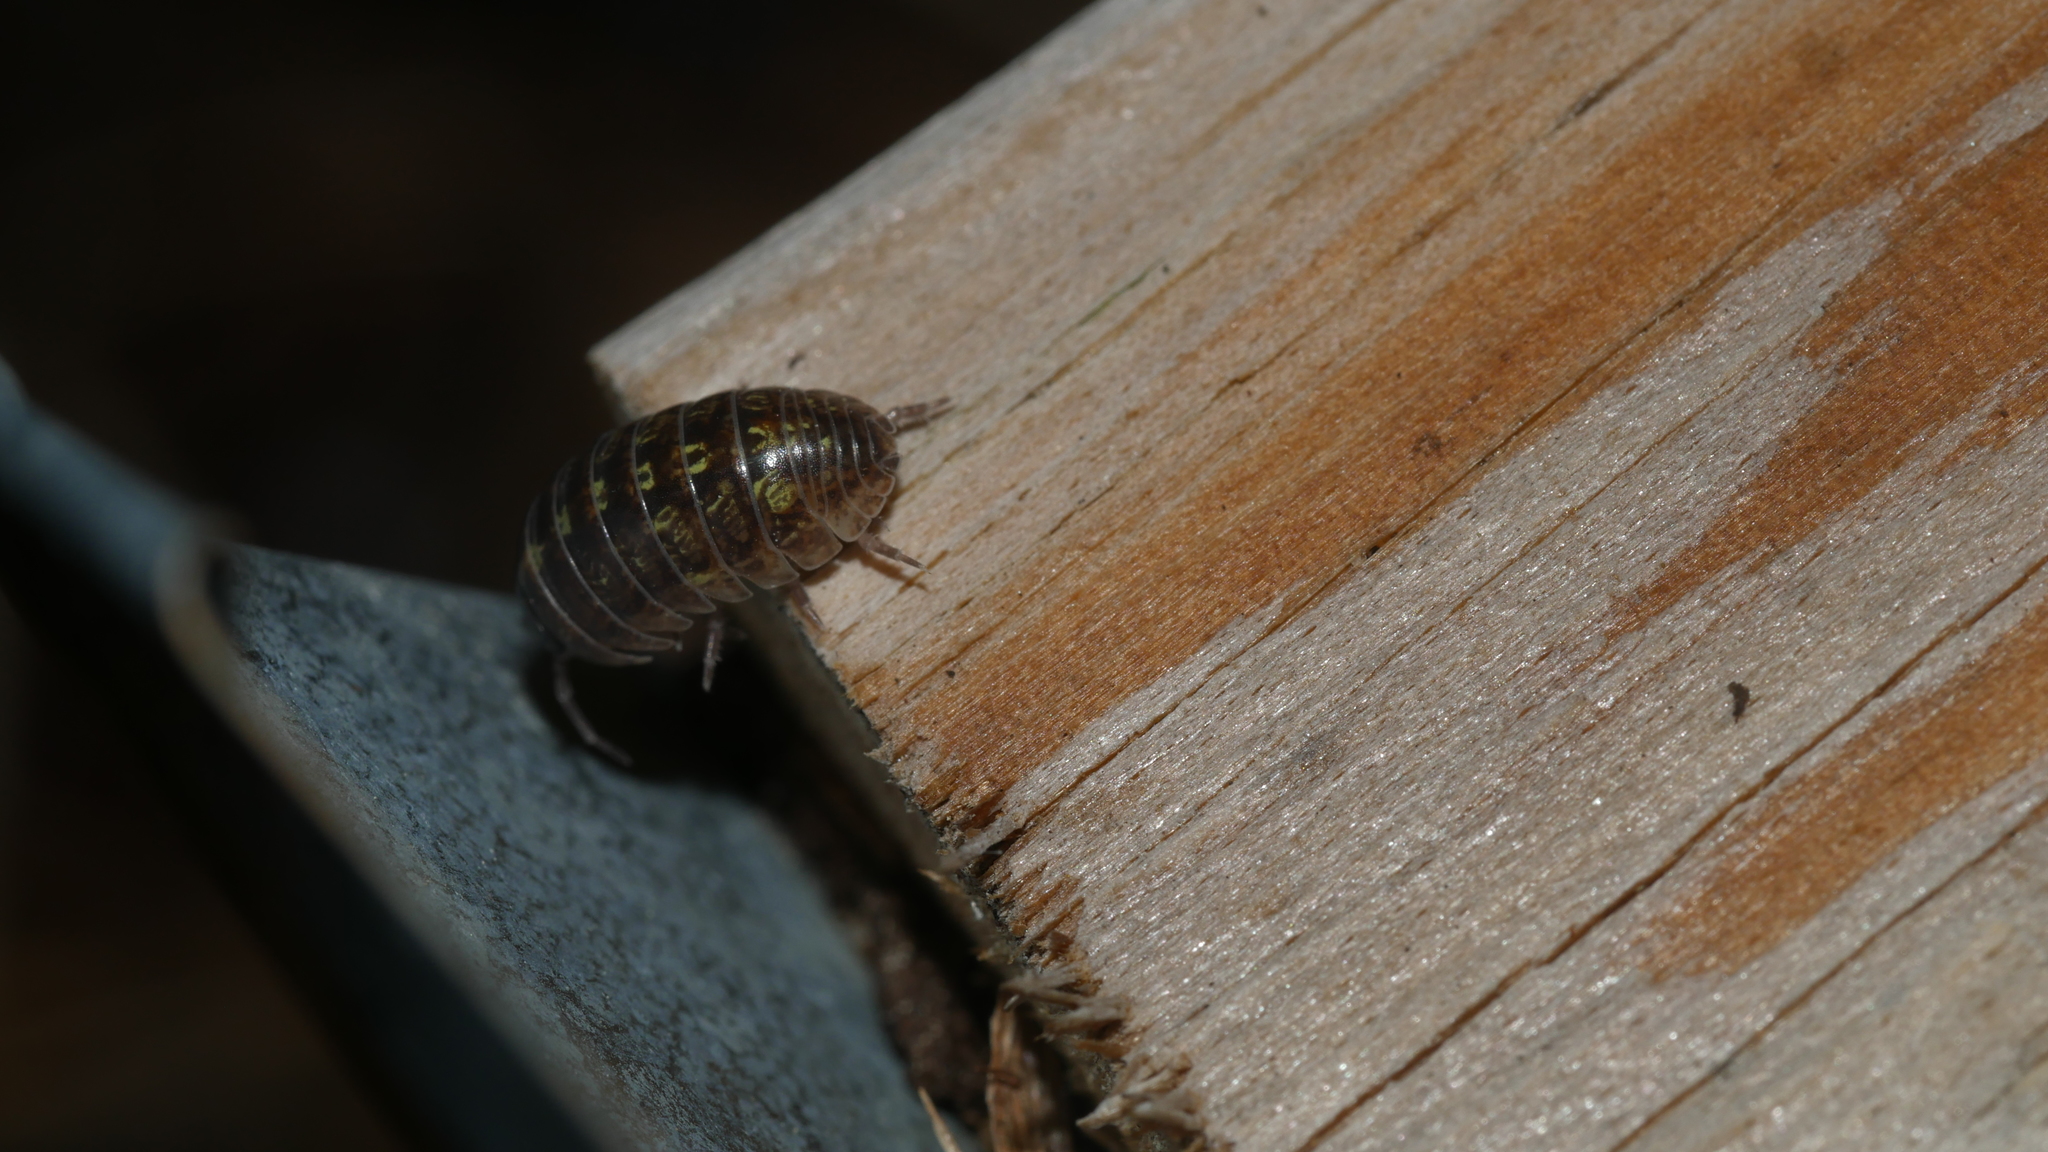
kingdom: Animalia
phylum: Arthropoda
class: Malacostraca
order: Isopoda
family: Armadillidiidae
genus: Armadillidium
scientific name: Armadillidium vulgare
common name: Common pill woodlouse
